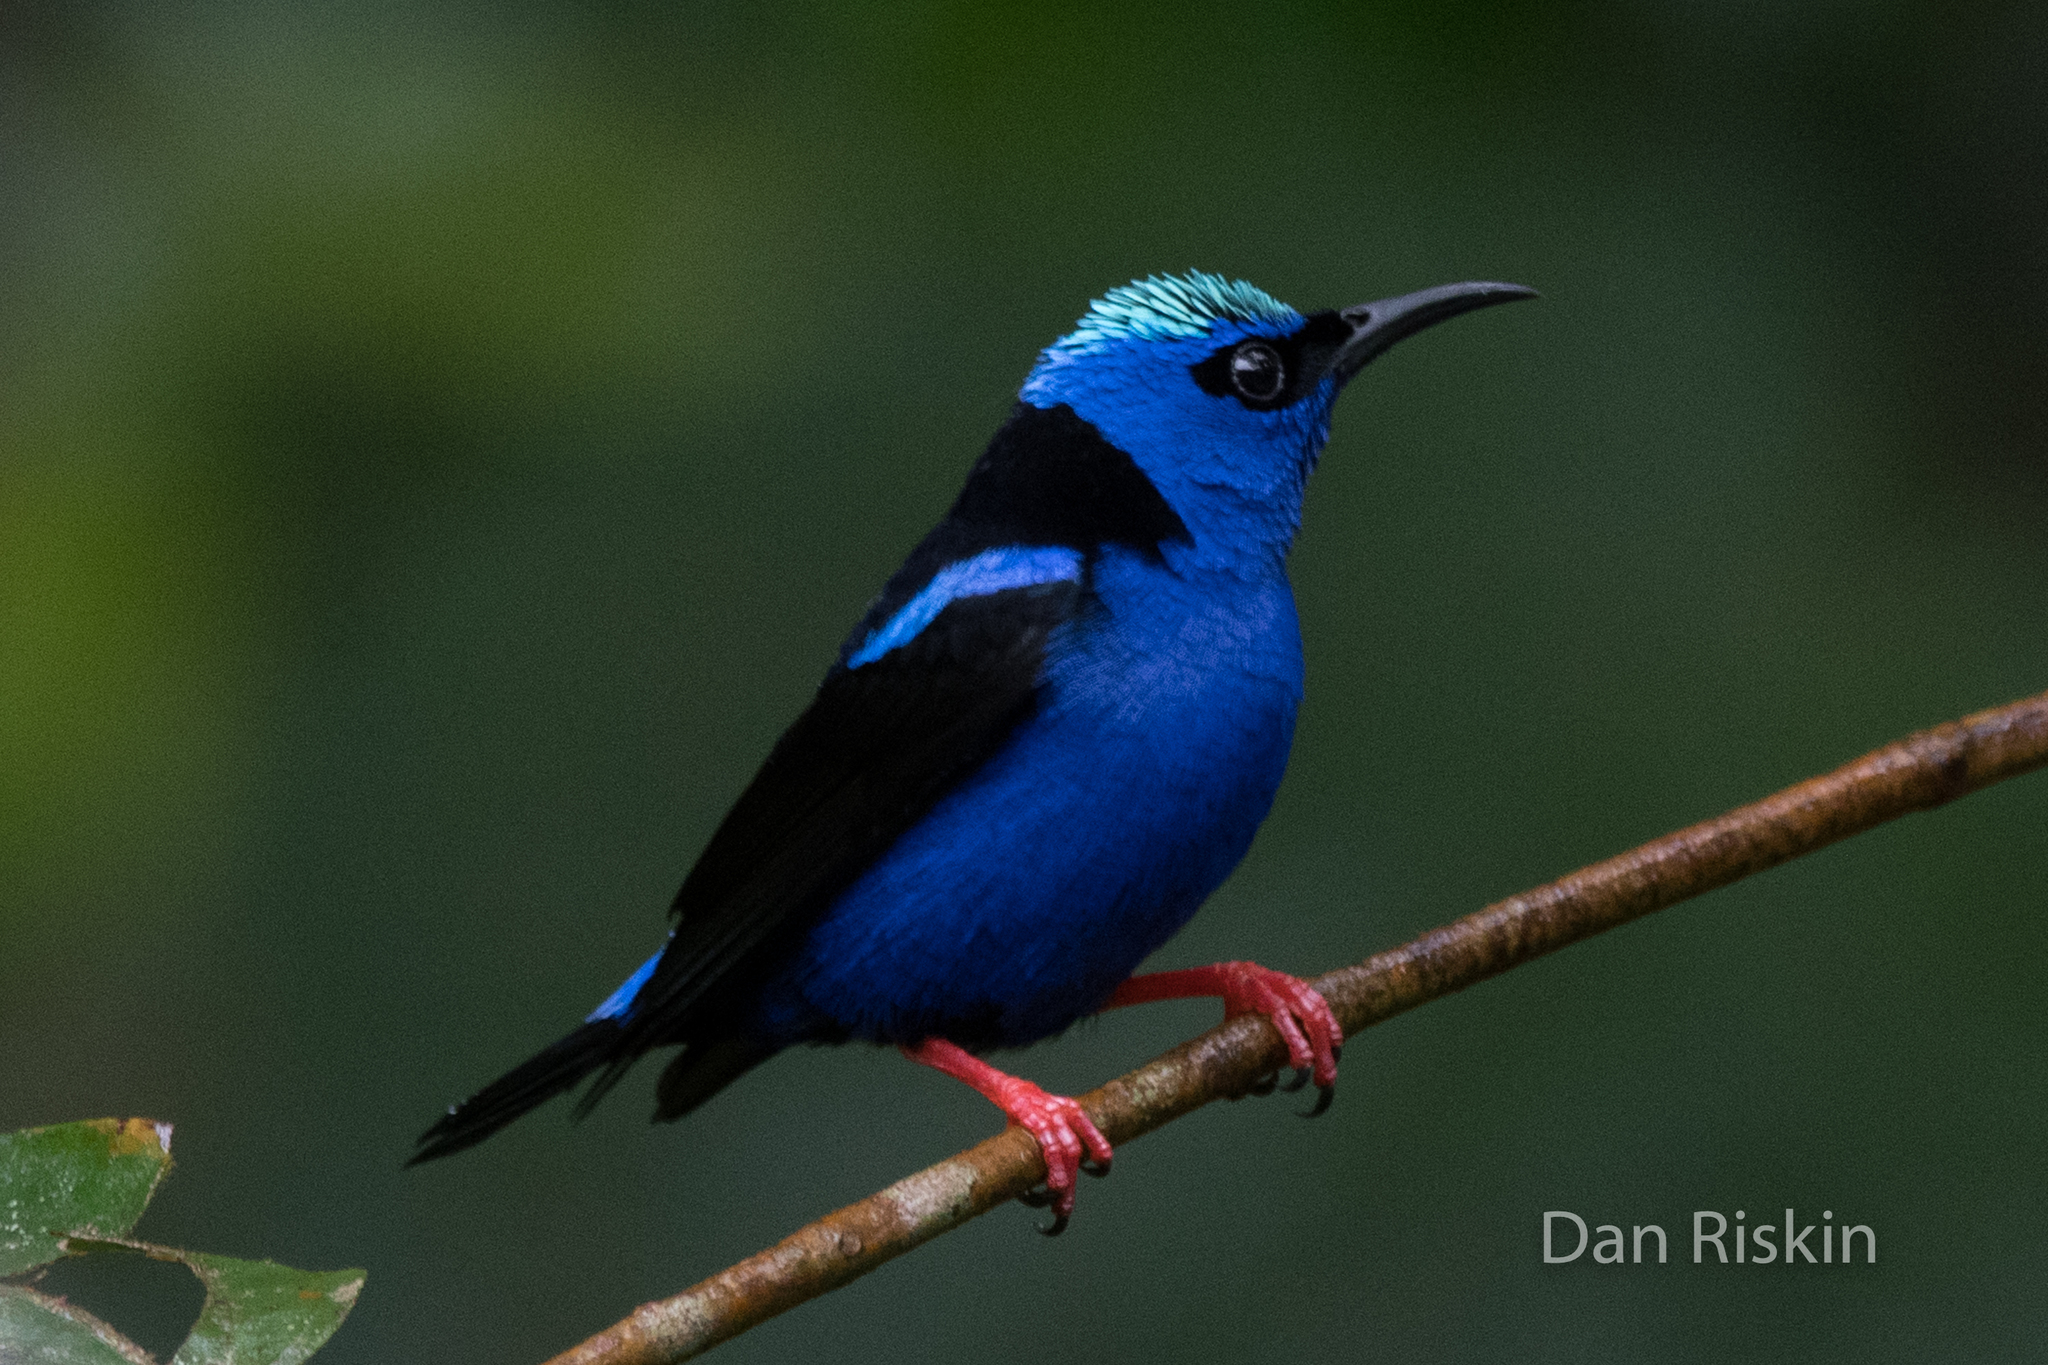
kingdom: Animalia
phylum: Chordata
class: Aves
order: Passeriformes
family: Thraupidae
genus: Cyanerpes
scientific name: Cyanerpes cyaneus
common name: Red-legged honeycreeper
